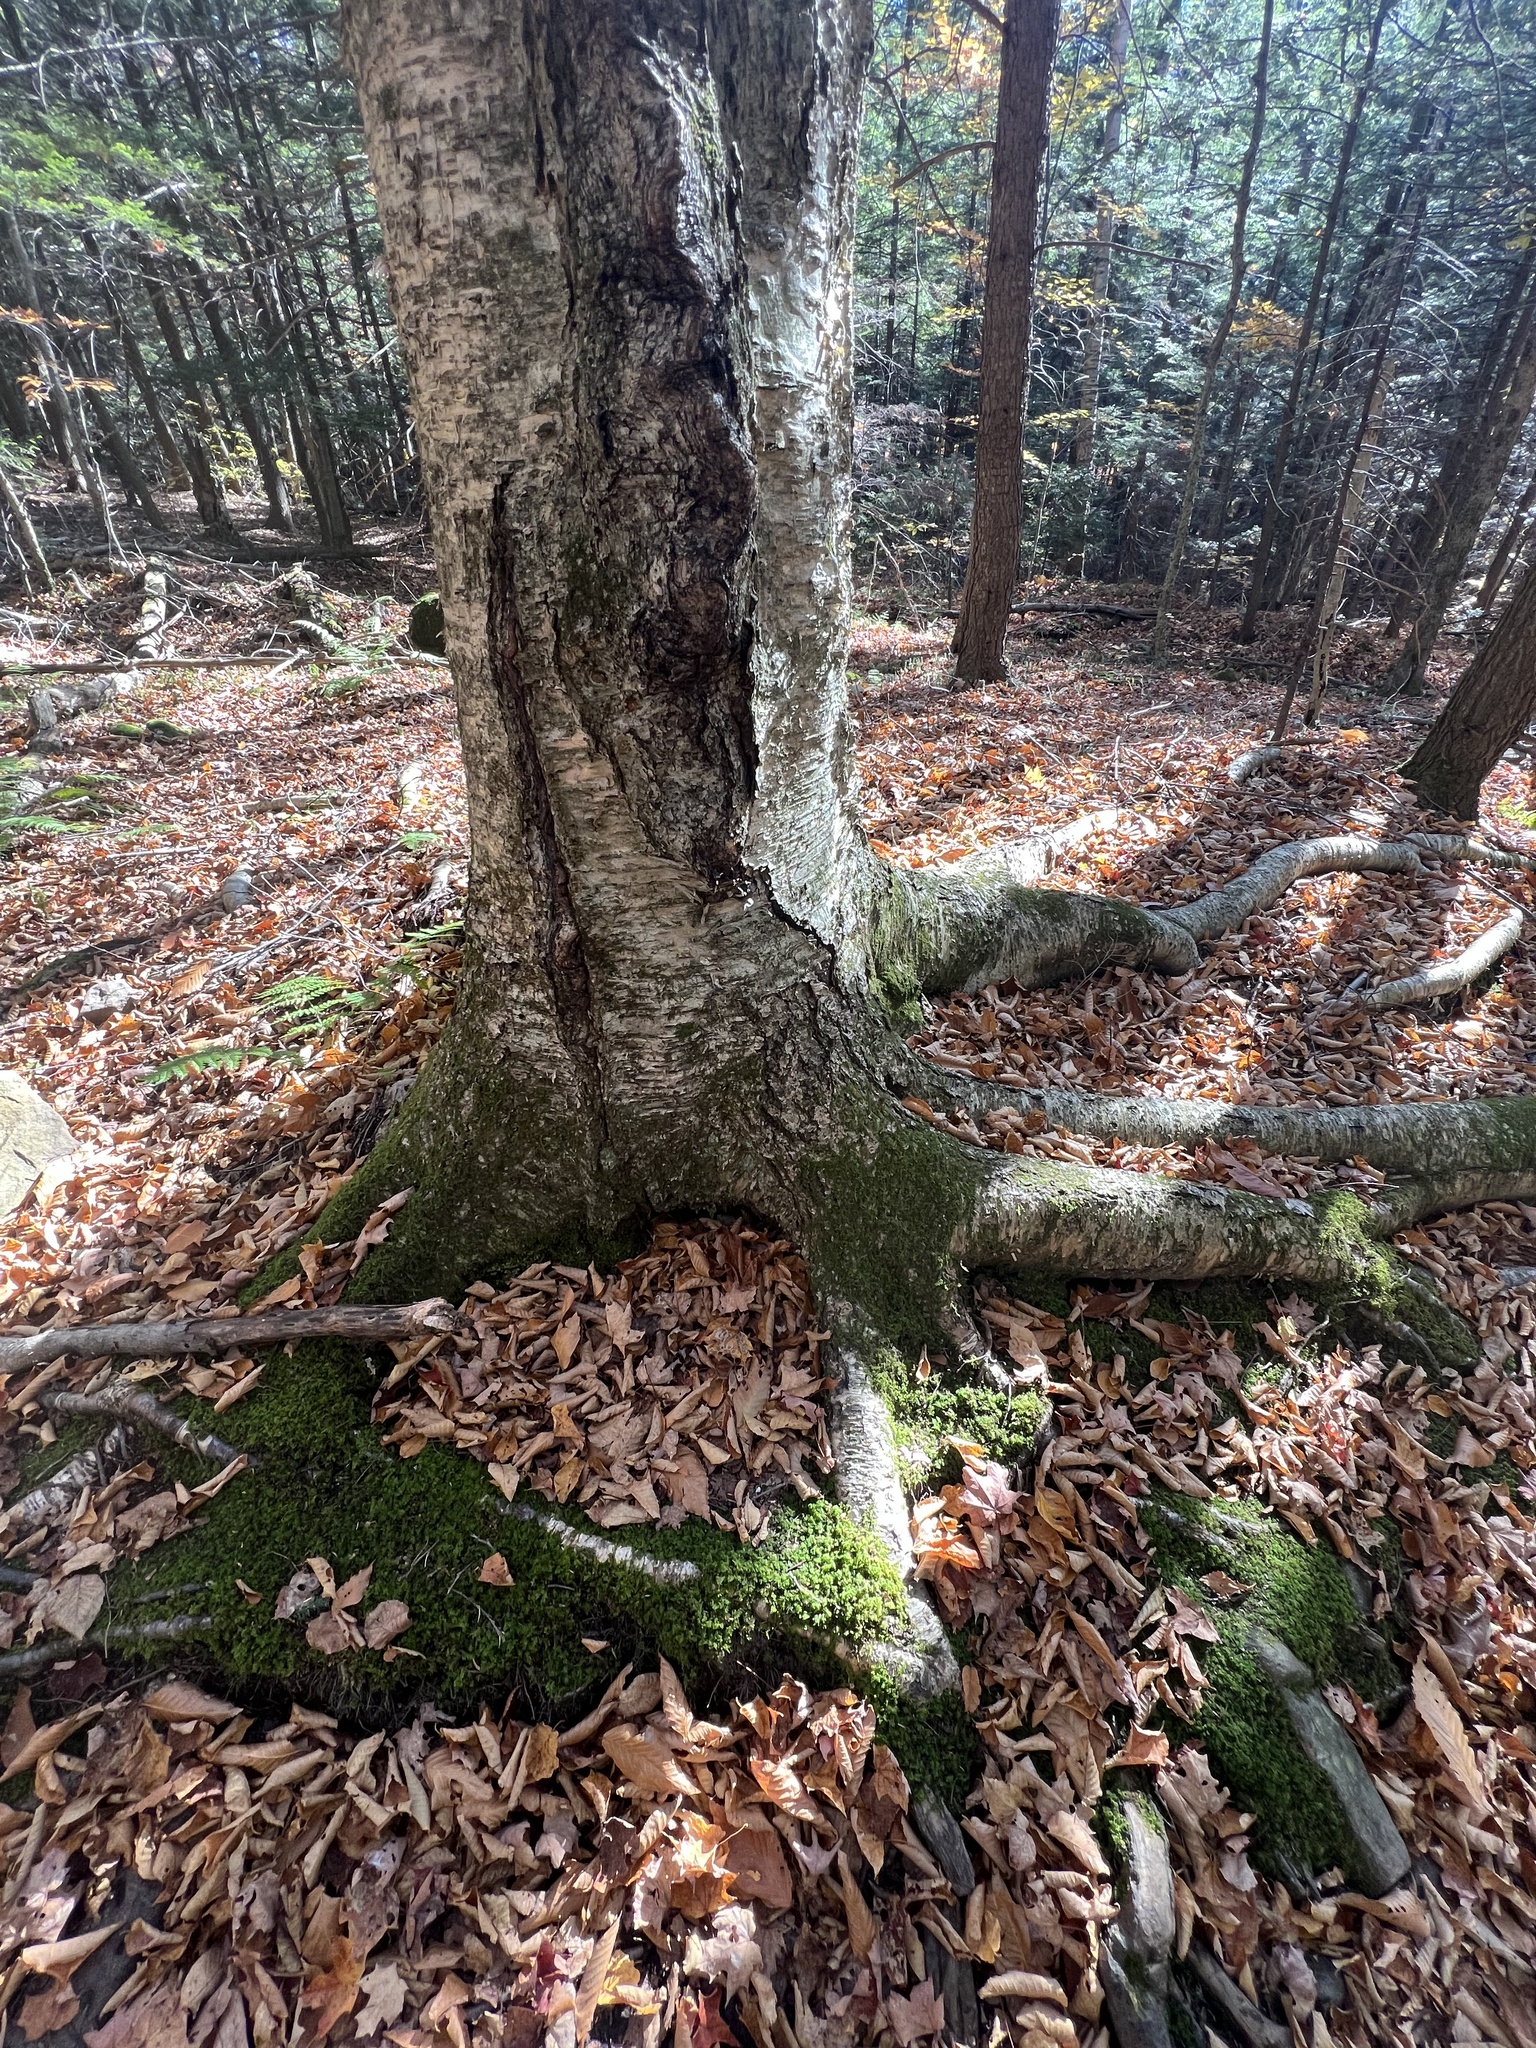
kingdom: Plantae
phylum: Bryophyta
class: Bryopsida
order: Hypnales
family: Thuidiaceae
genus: Thuidium
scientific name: Thuidium delicatulum
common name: Delicate fern moss
